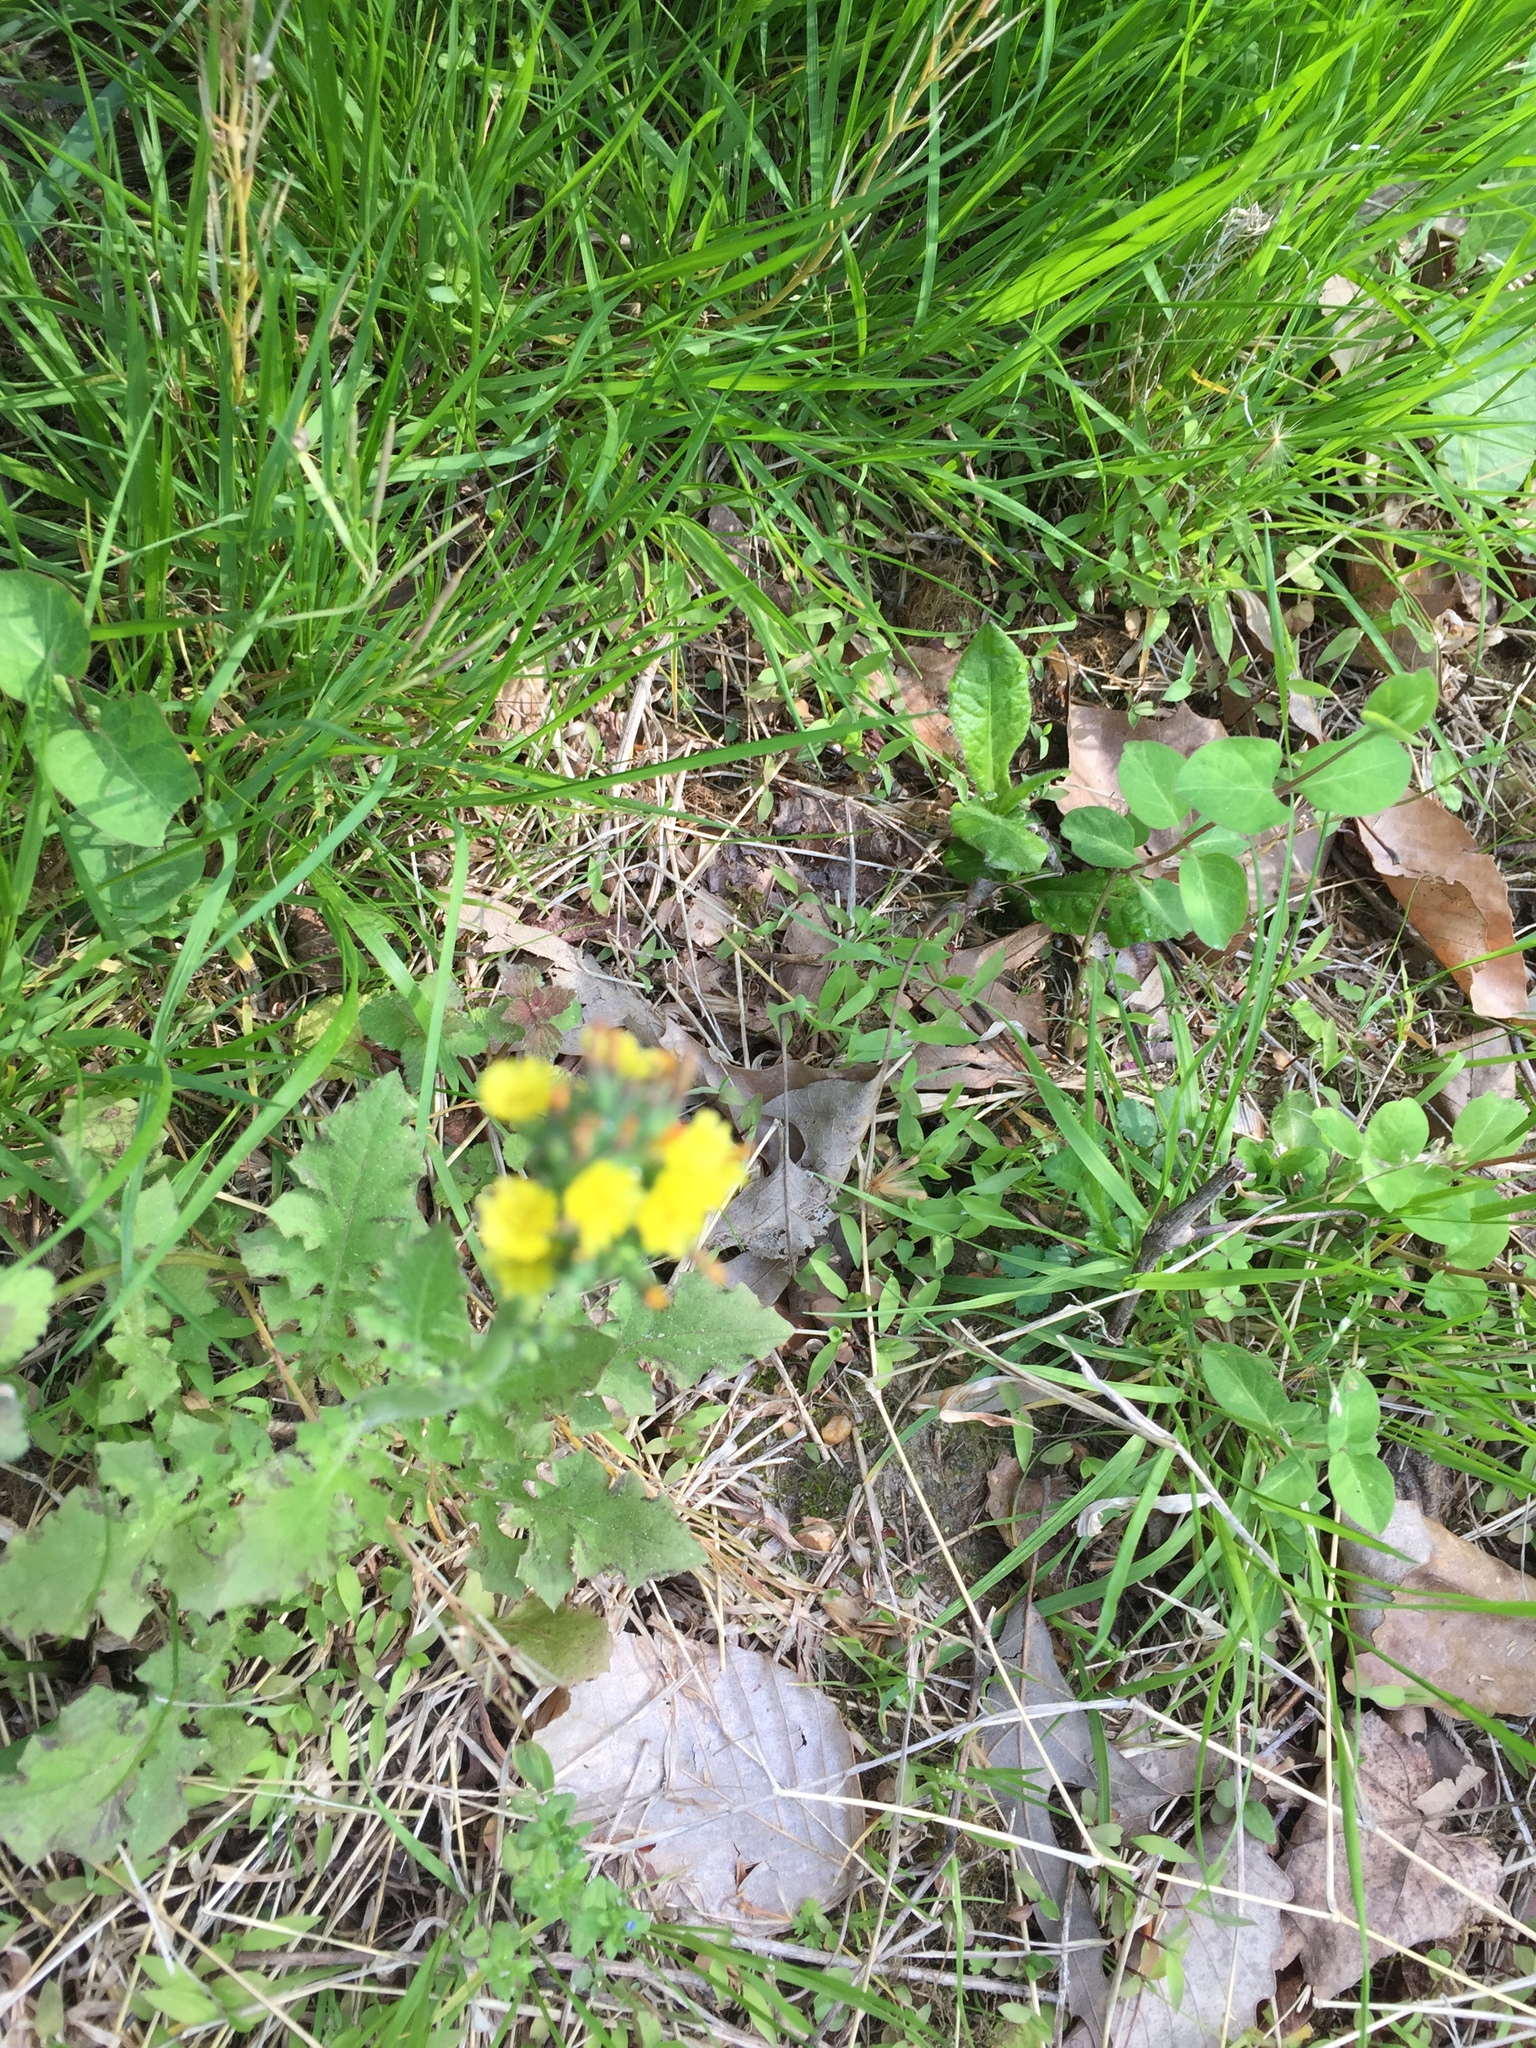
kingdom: Plantae
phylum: Tracheophyta
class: Magnoliopsida
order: Asterales
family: Asteraceae
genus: Youngia
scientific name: Youngia japonica
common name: Oriental false hawksbeard
